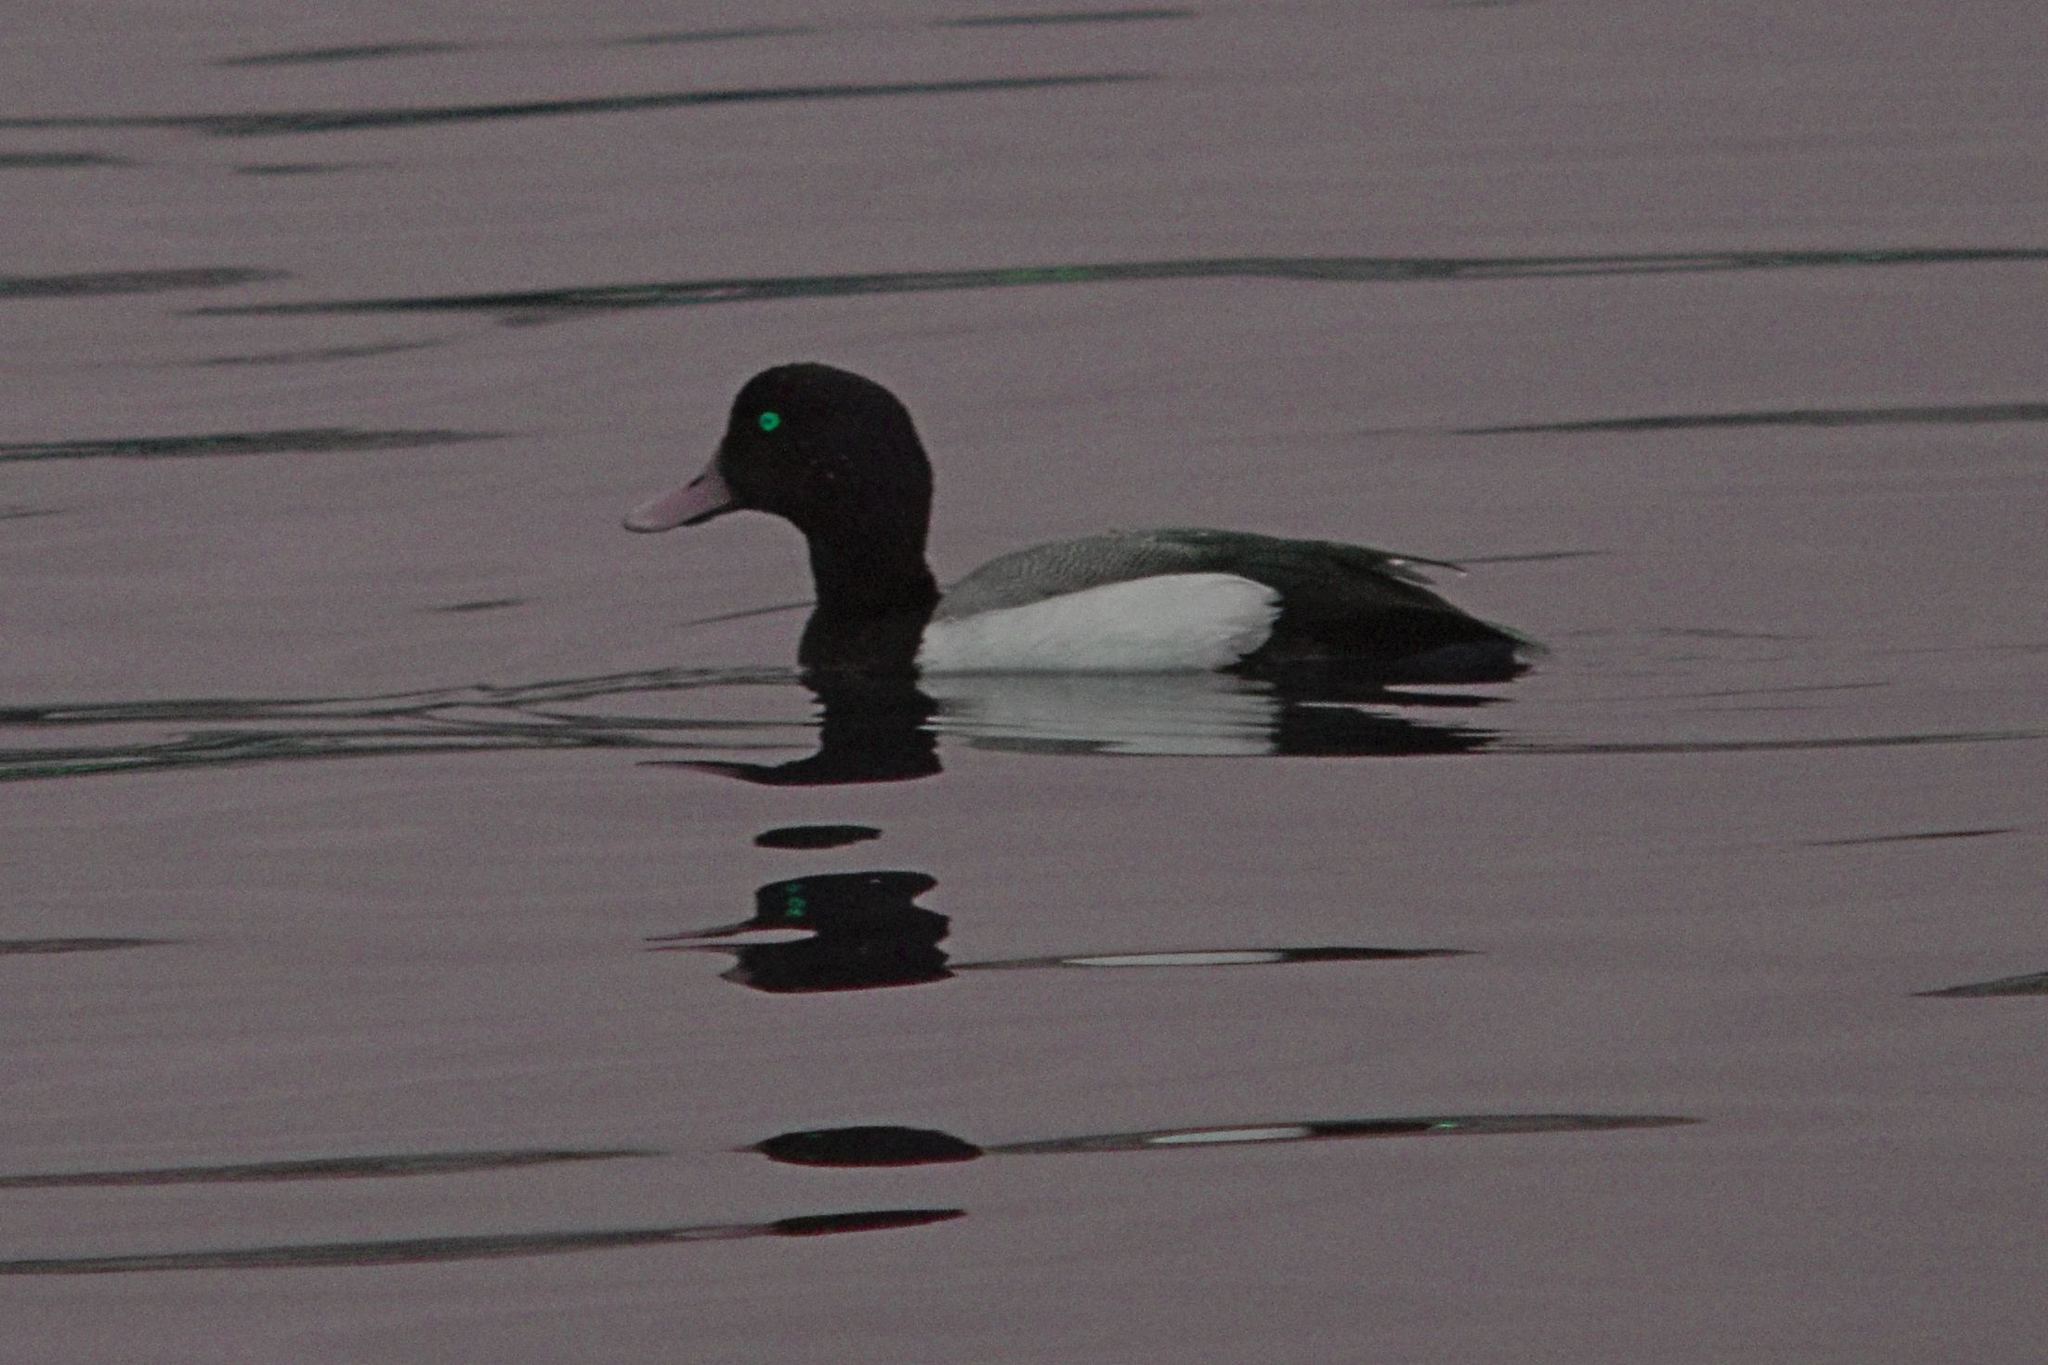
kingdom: Animalia
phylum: Chordata
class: Aves
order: Anseriformes
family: Anatidae
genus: Aythya
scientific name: Aythya marila
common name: Greater scaup
